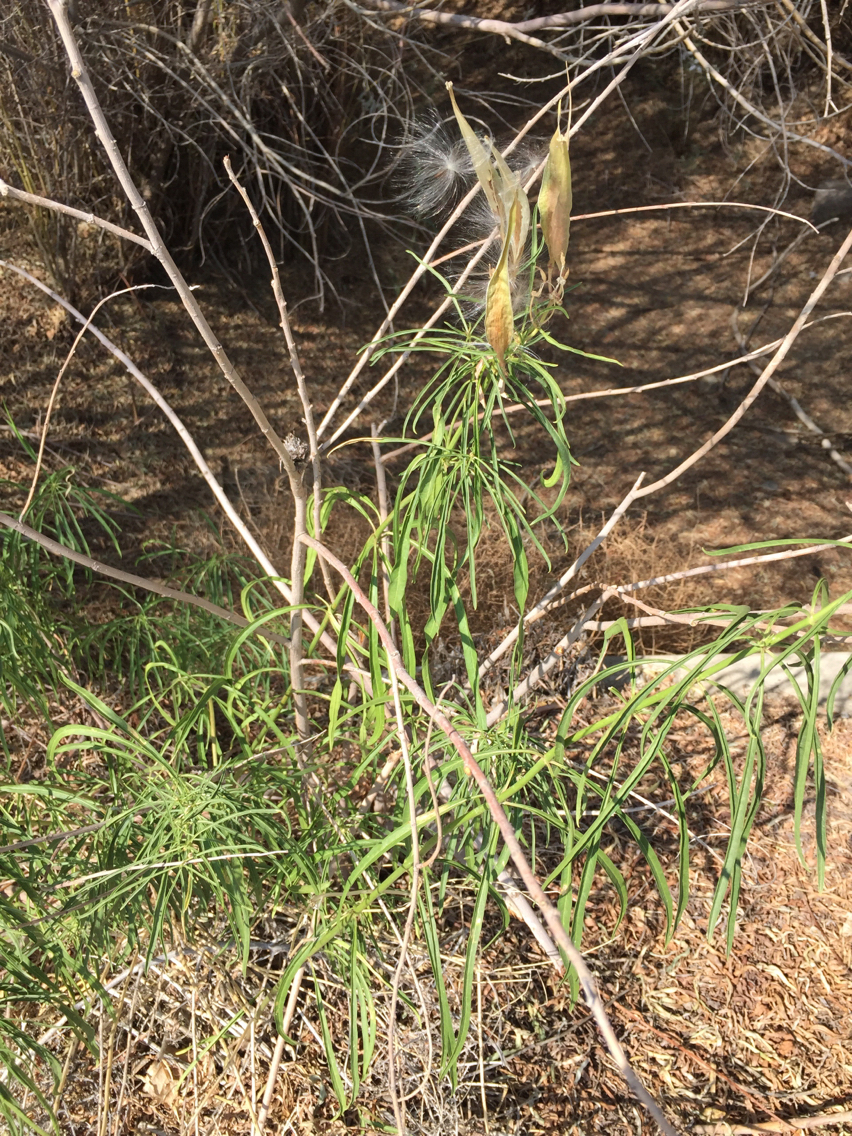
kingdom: Plantae
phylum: Tracheophyta
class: Magnoliopsida
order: Gentianales
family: Apocynaceae
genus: Asclepias
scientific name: Asclepias fascicularis
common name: Mexican milkweed
